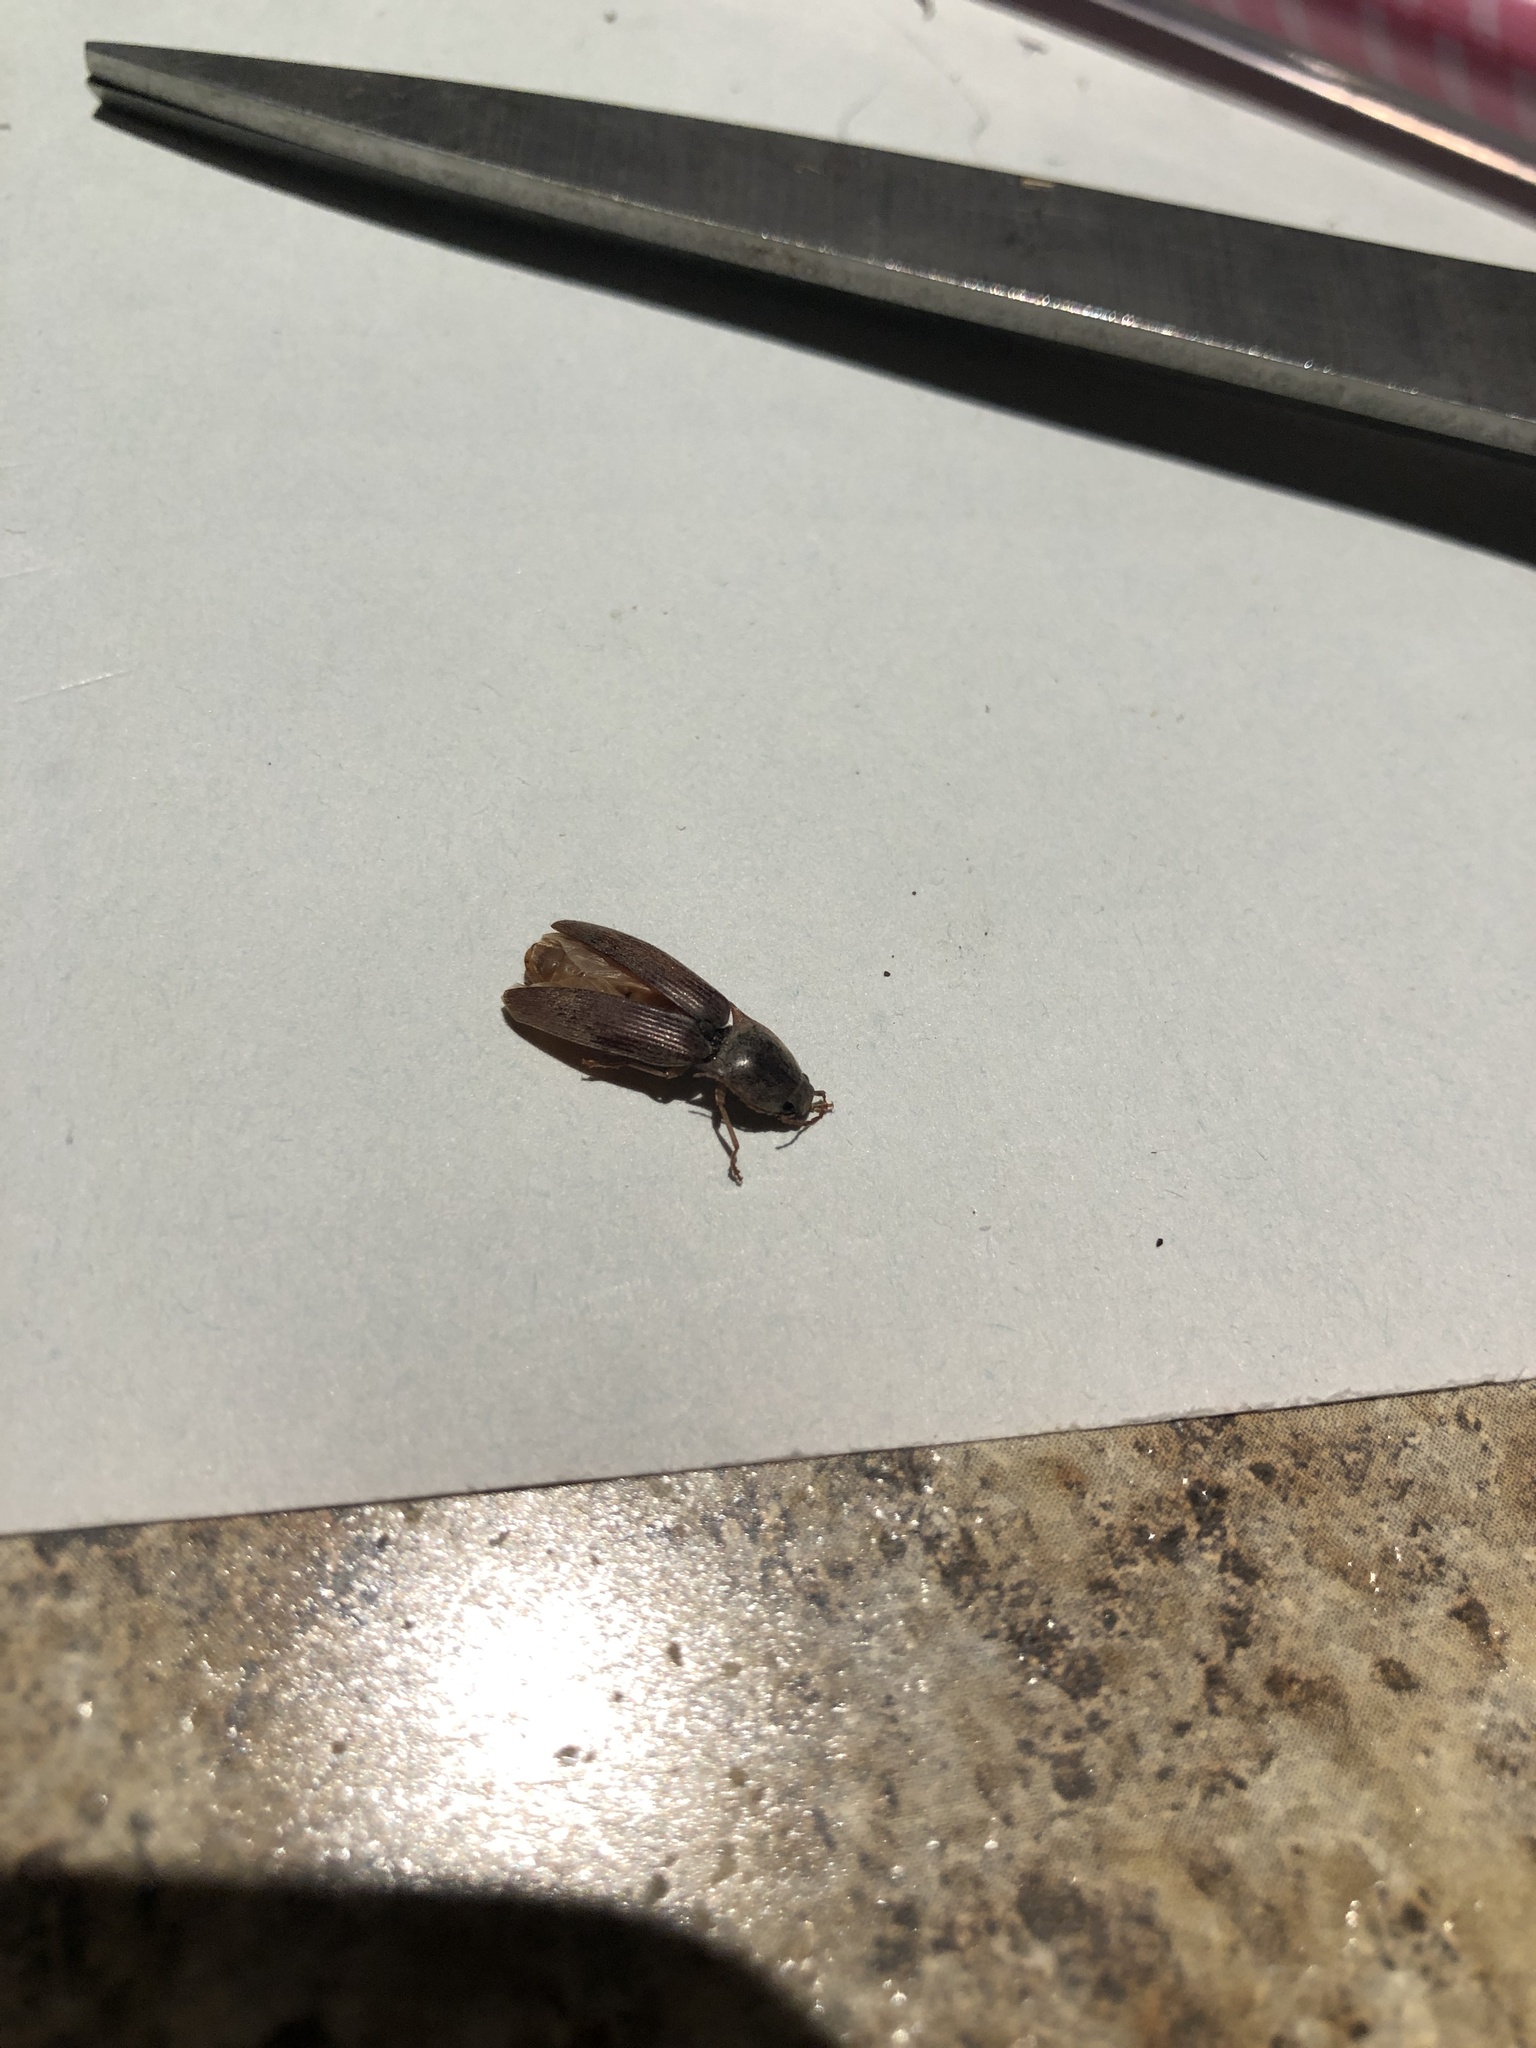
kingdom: Animalia
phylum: Arthropoda
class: Insecta
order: Coleoptera
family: Elateridae
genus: Monocrepidius
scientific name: Monocrepidius lividus
